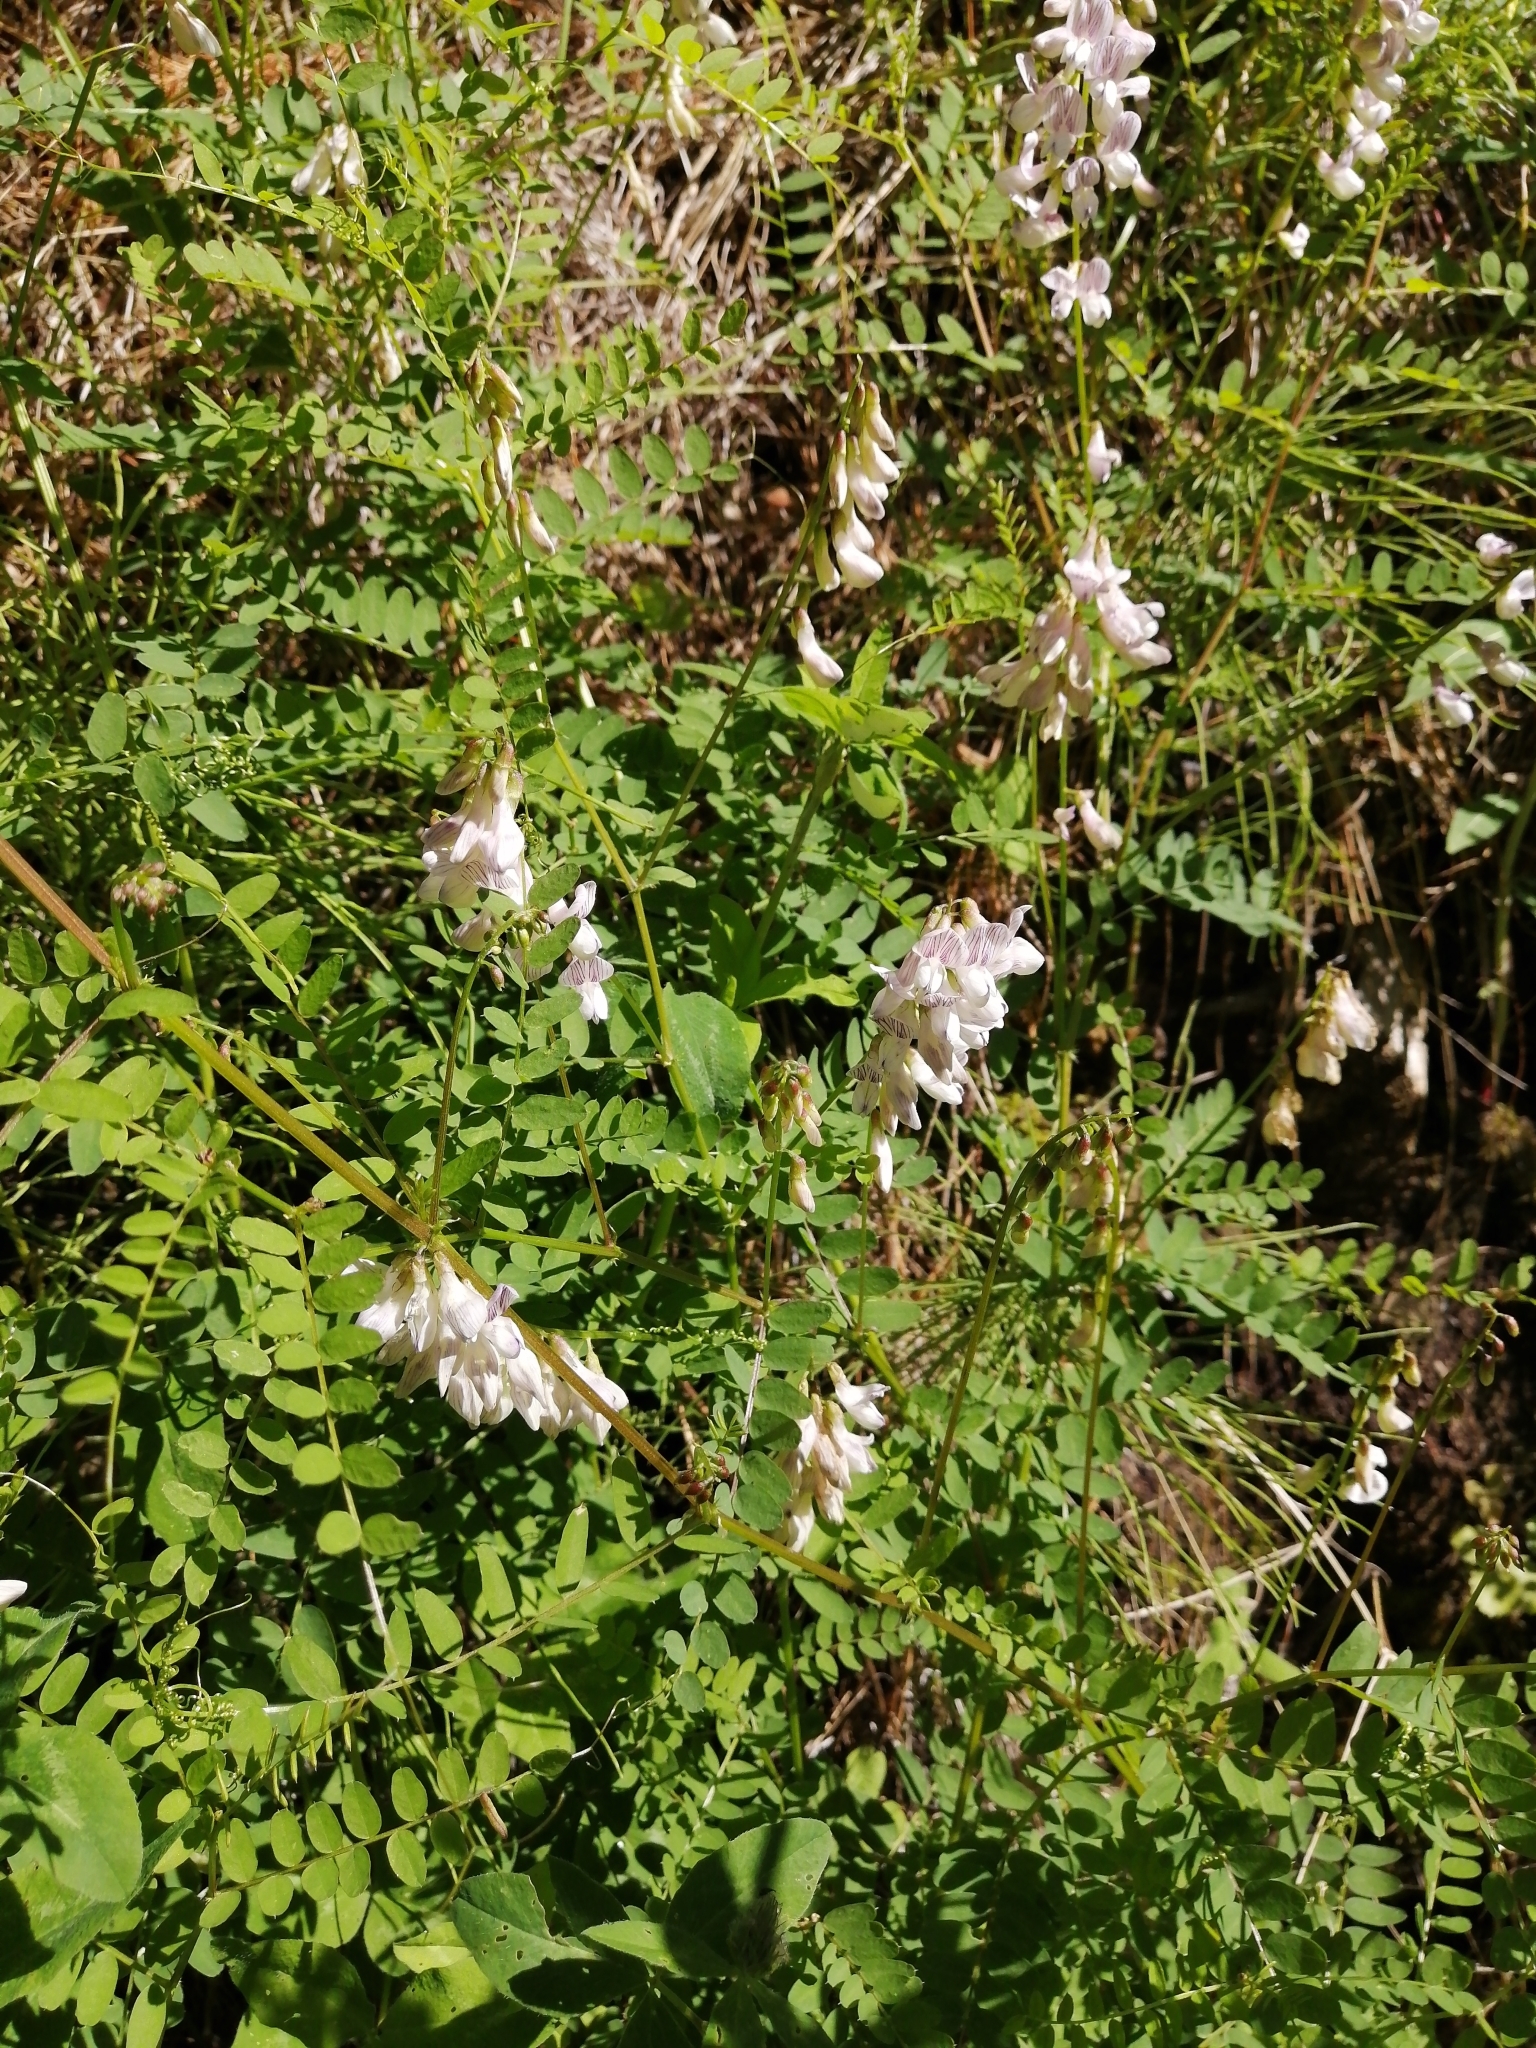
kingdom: Plantae
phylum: Tracheophyta
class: Magnoliopsida
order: Fabales
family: Fabaceae
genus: Vicia
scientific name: Vicia sylvatica
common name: Wood vetch
